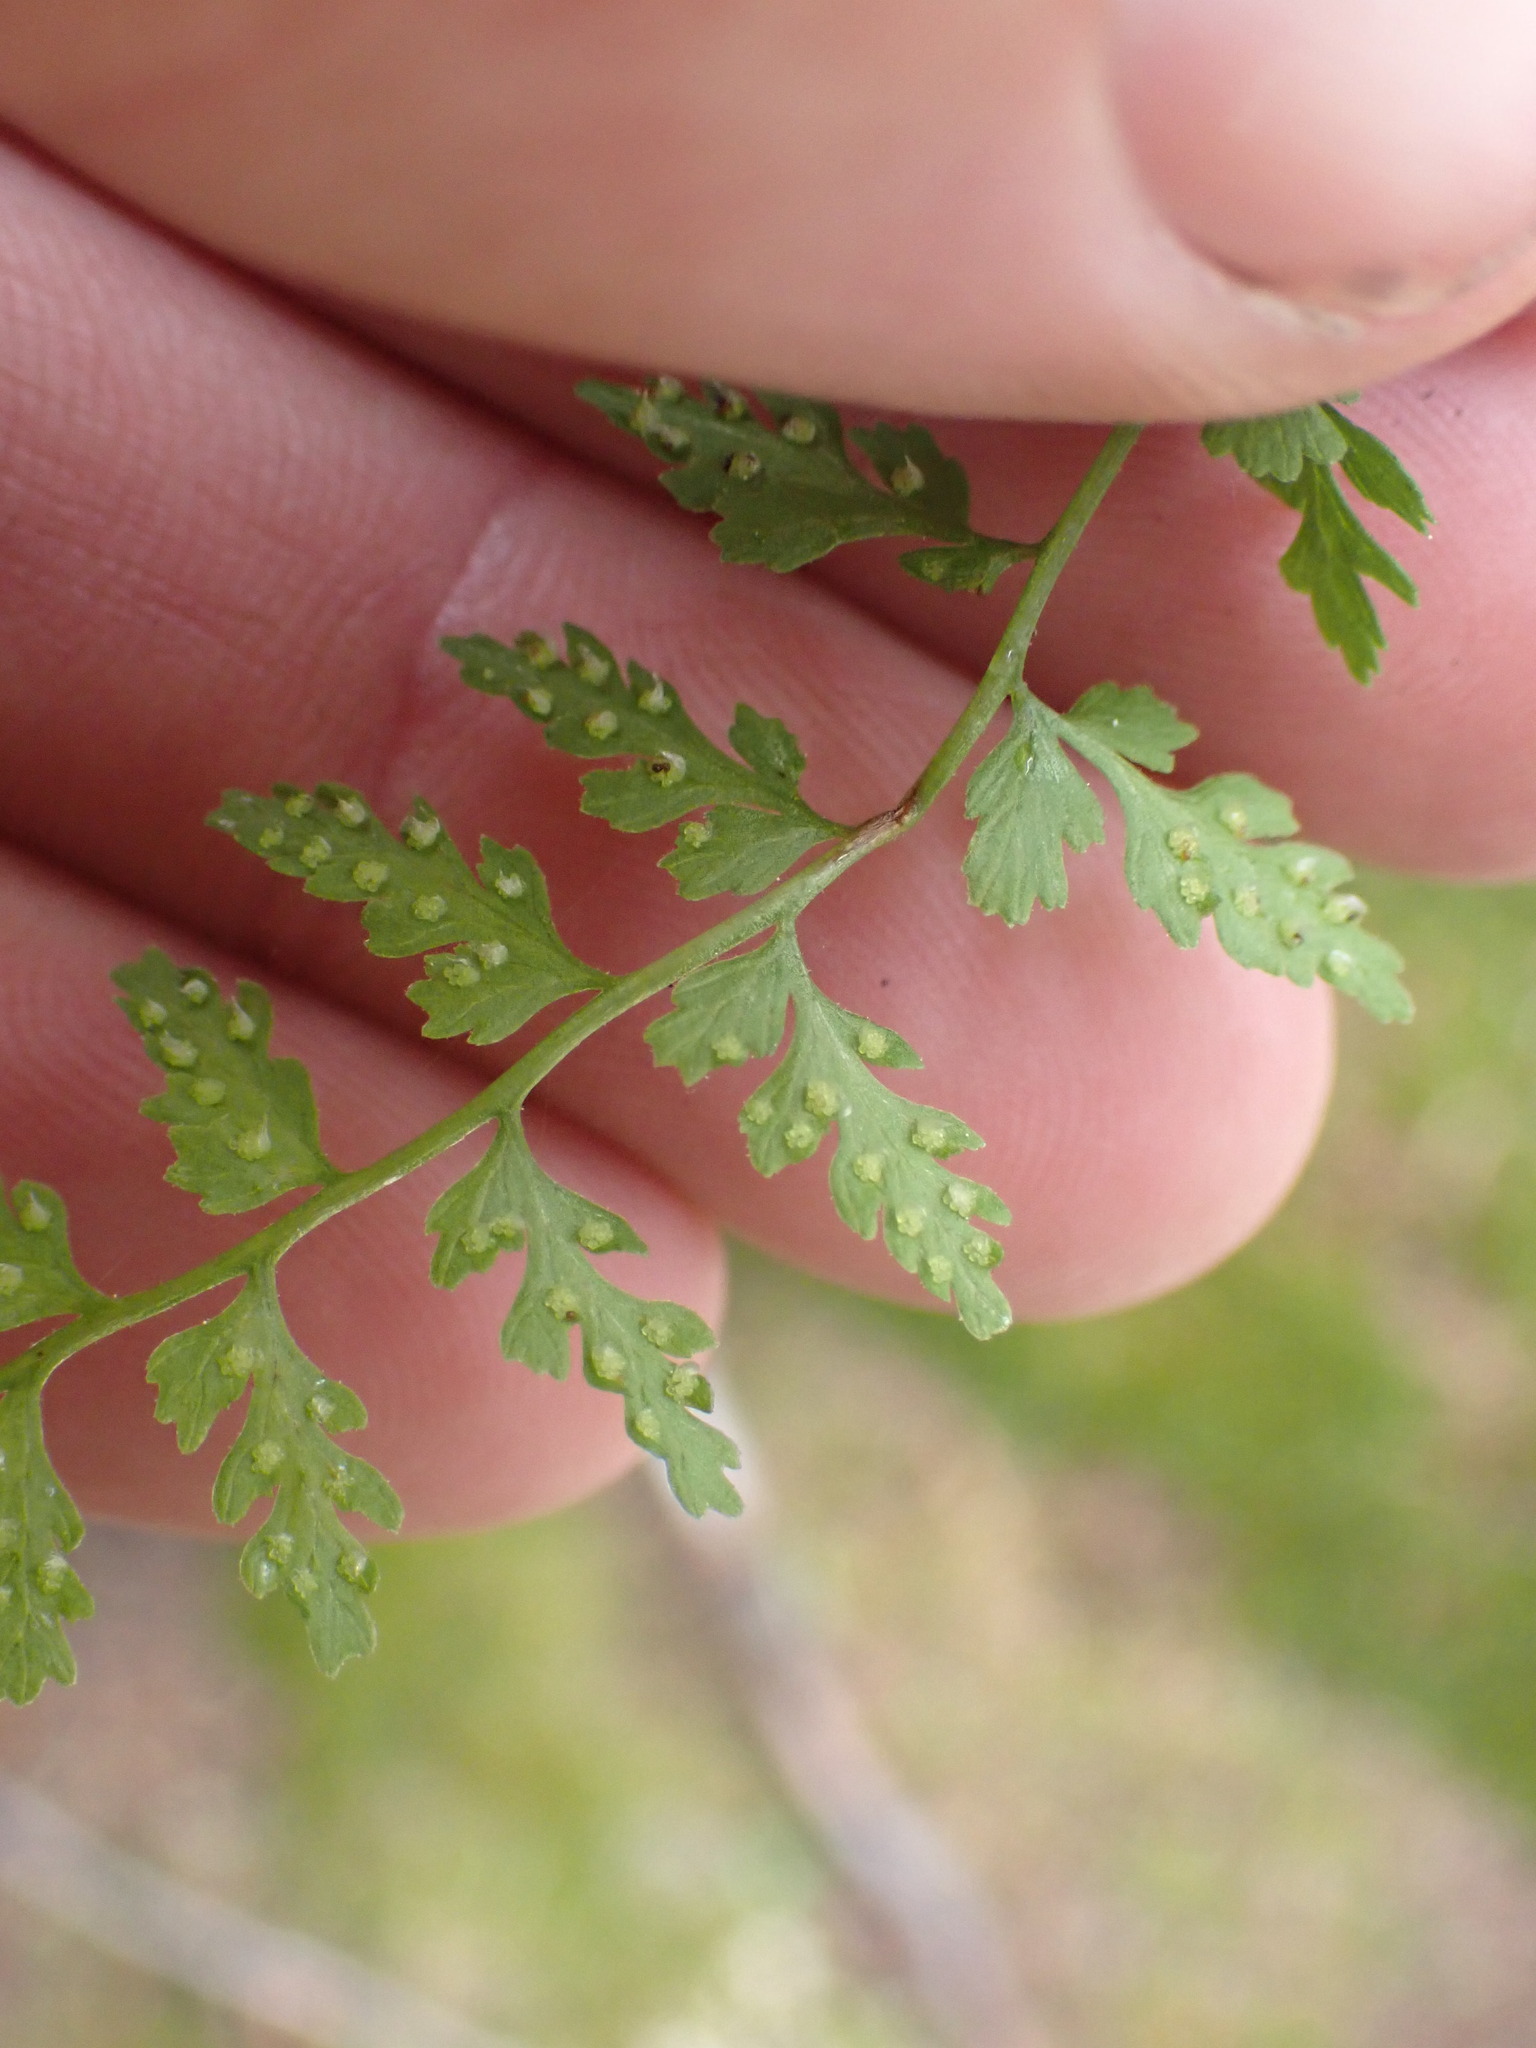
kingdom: Plantae
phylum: Tracheophyta
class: Polypodiopsida
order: Polypodiales
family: Cystopteridaceae
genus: Cystopteris
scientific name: Cystopteris fragilis
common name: Brittle bladder fern
